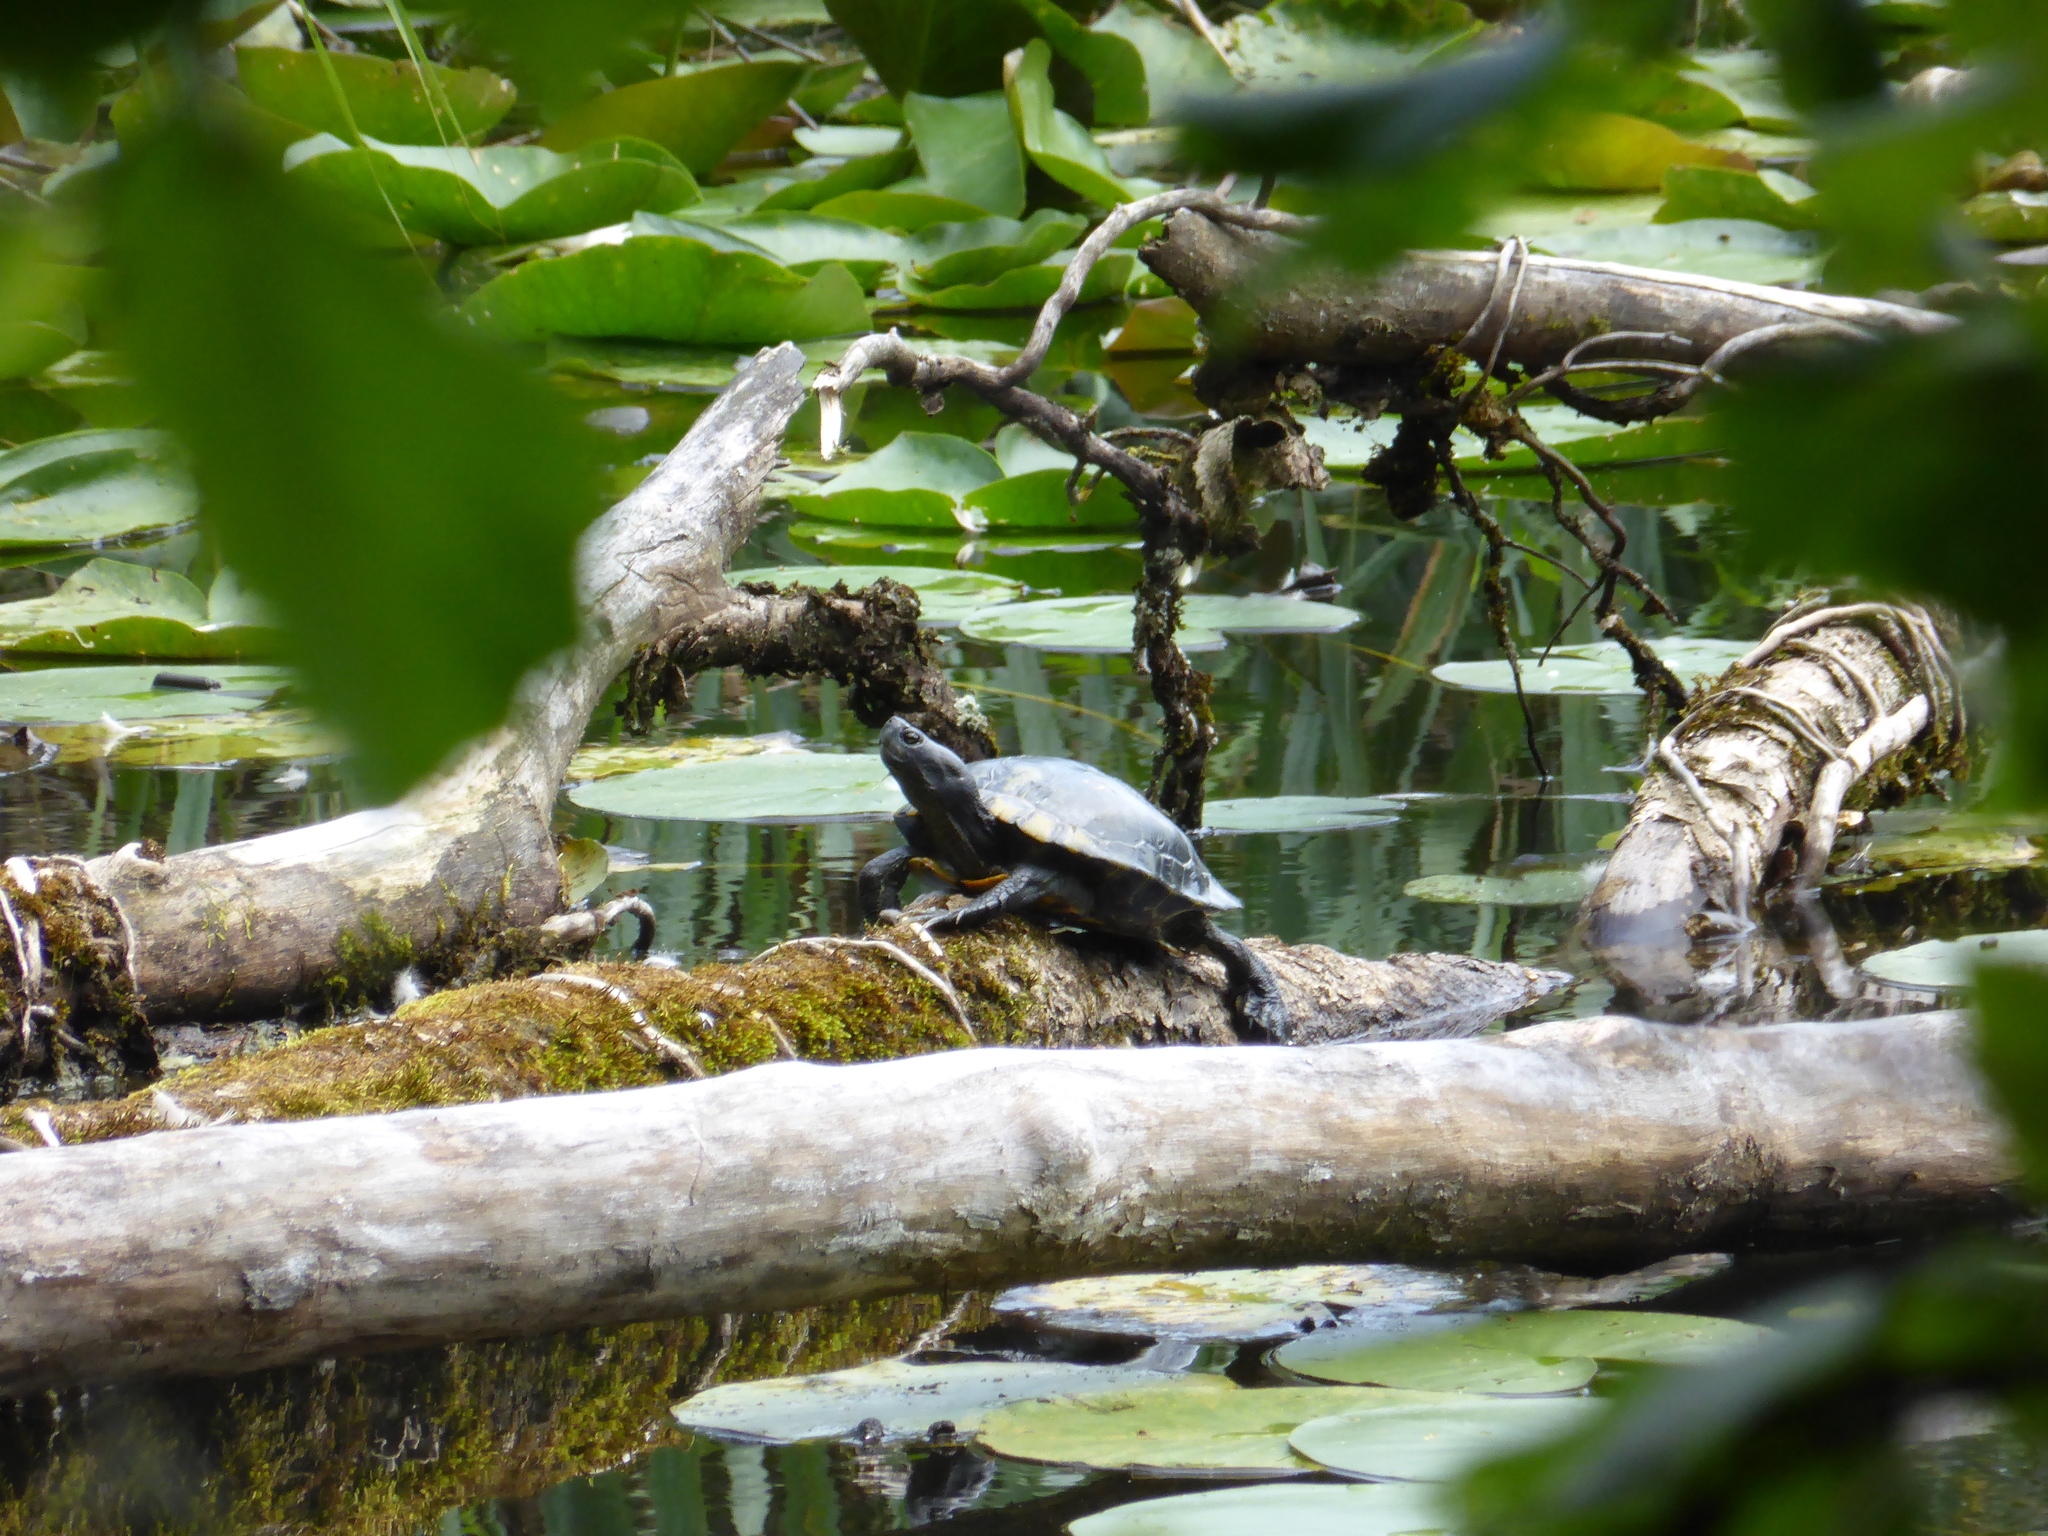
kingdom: Animalia
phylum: Chordata
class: Testudines
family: Emydidae
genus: Trachemys
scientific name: Trachemys scripta
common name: Slider
